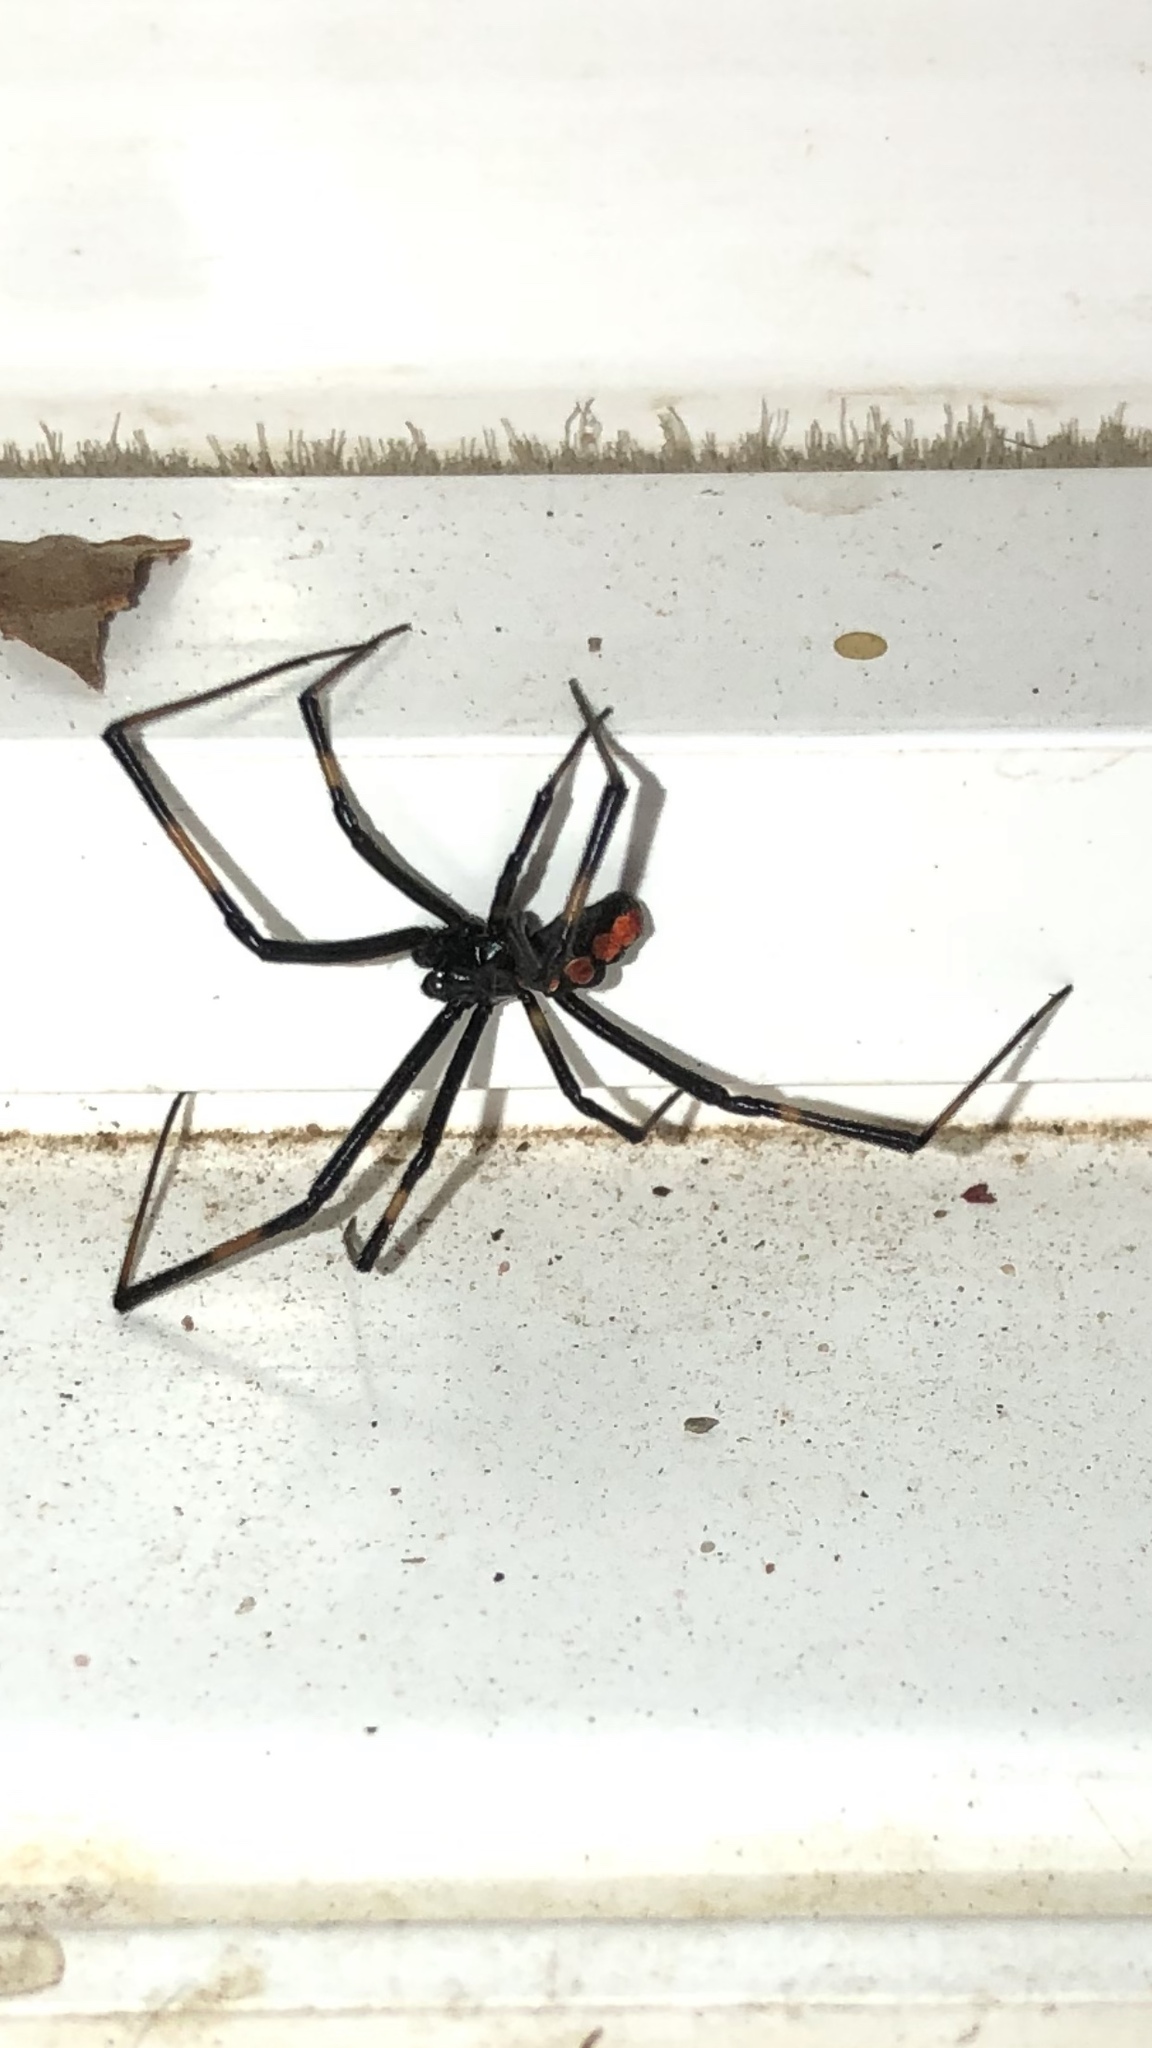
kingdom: Animalia
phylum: Arthropoda
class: Arachnida
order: Araneae
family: Theridiidae
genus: Latrodectus
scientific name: Latrodectus mactans
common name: Cobweb spiders
